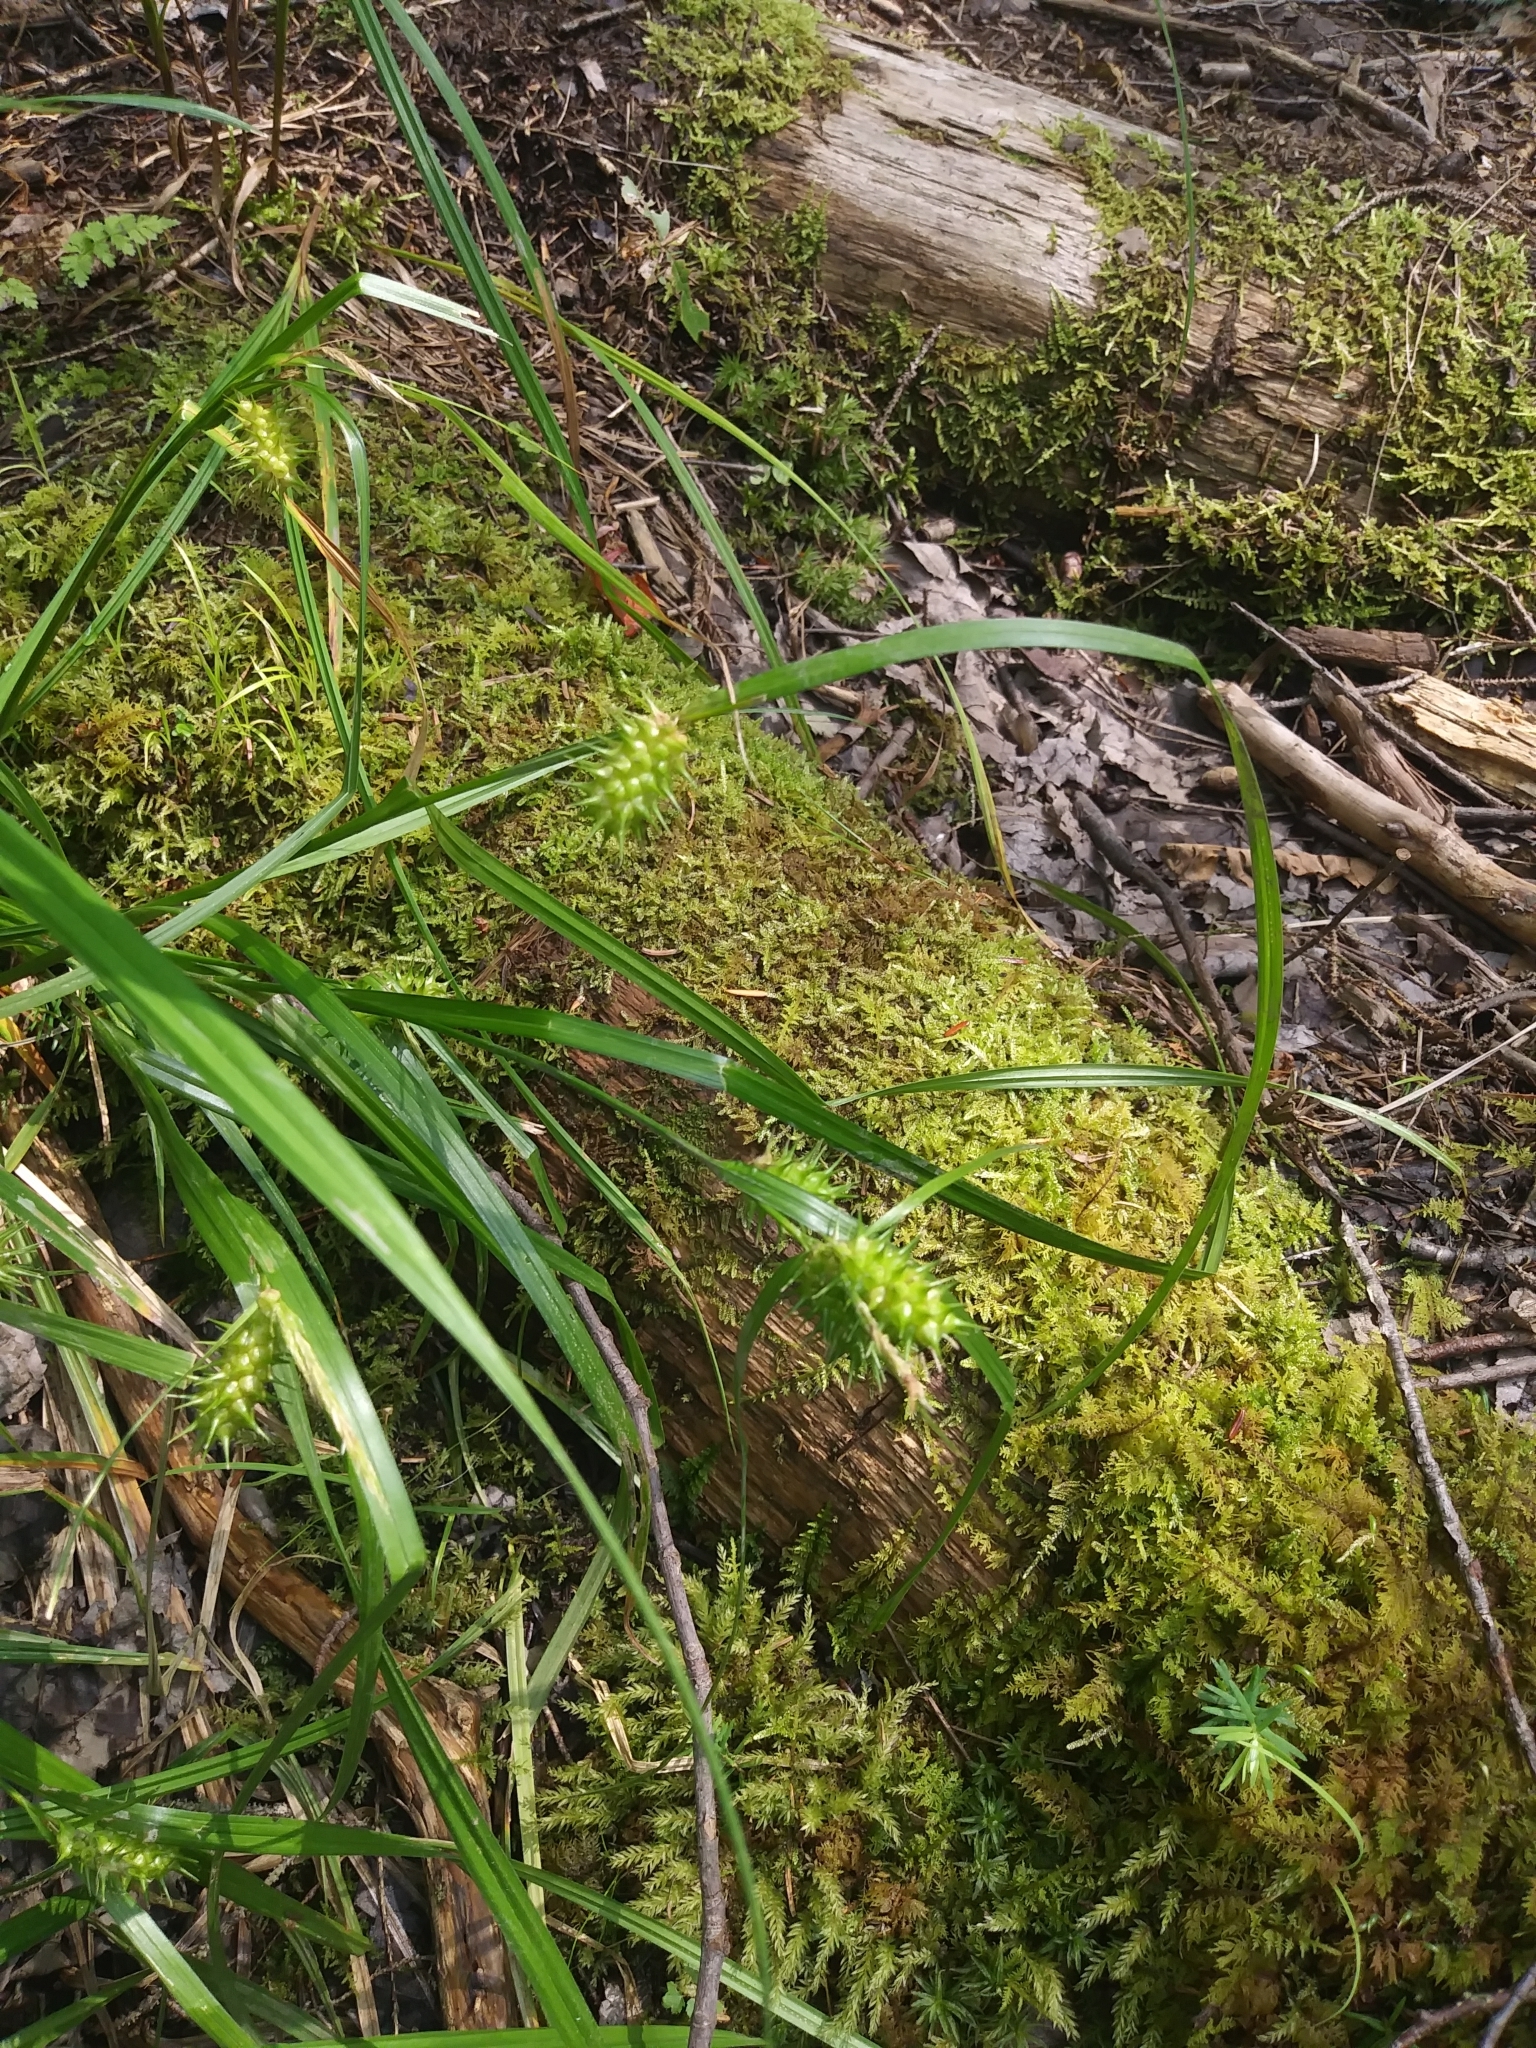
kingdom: Plantae
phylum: Tracheophyta
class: Liliopsida
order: Poales
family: Cyperaceae
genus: Carex
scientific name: Carex lurida
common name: Sallow sedge
